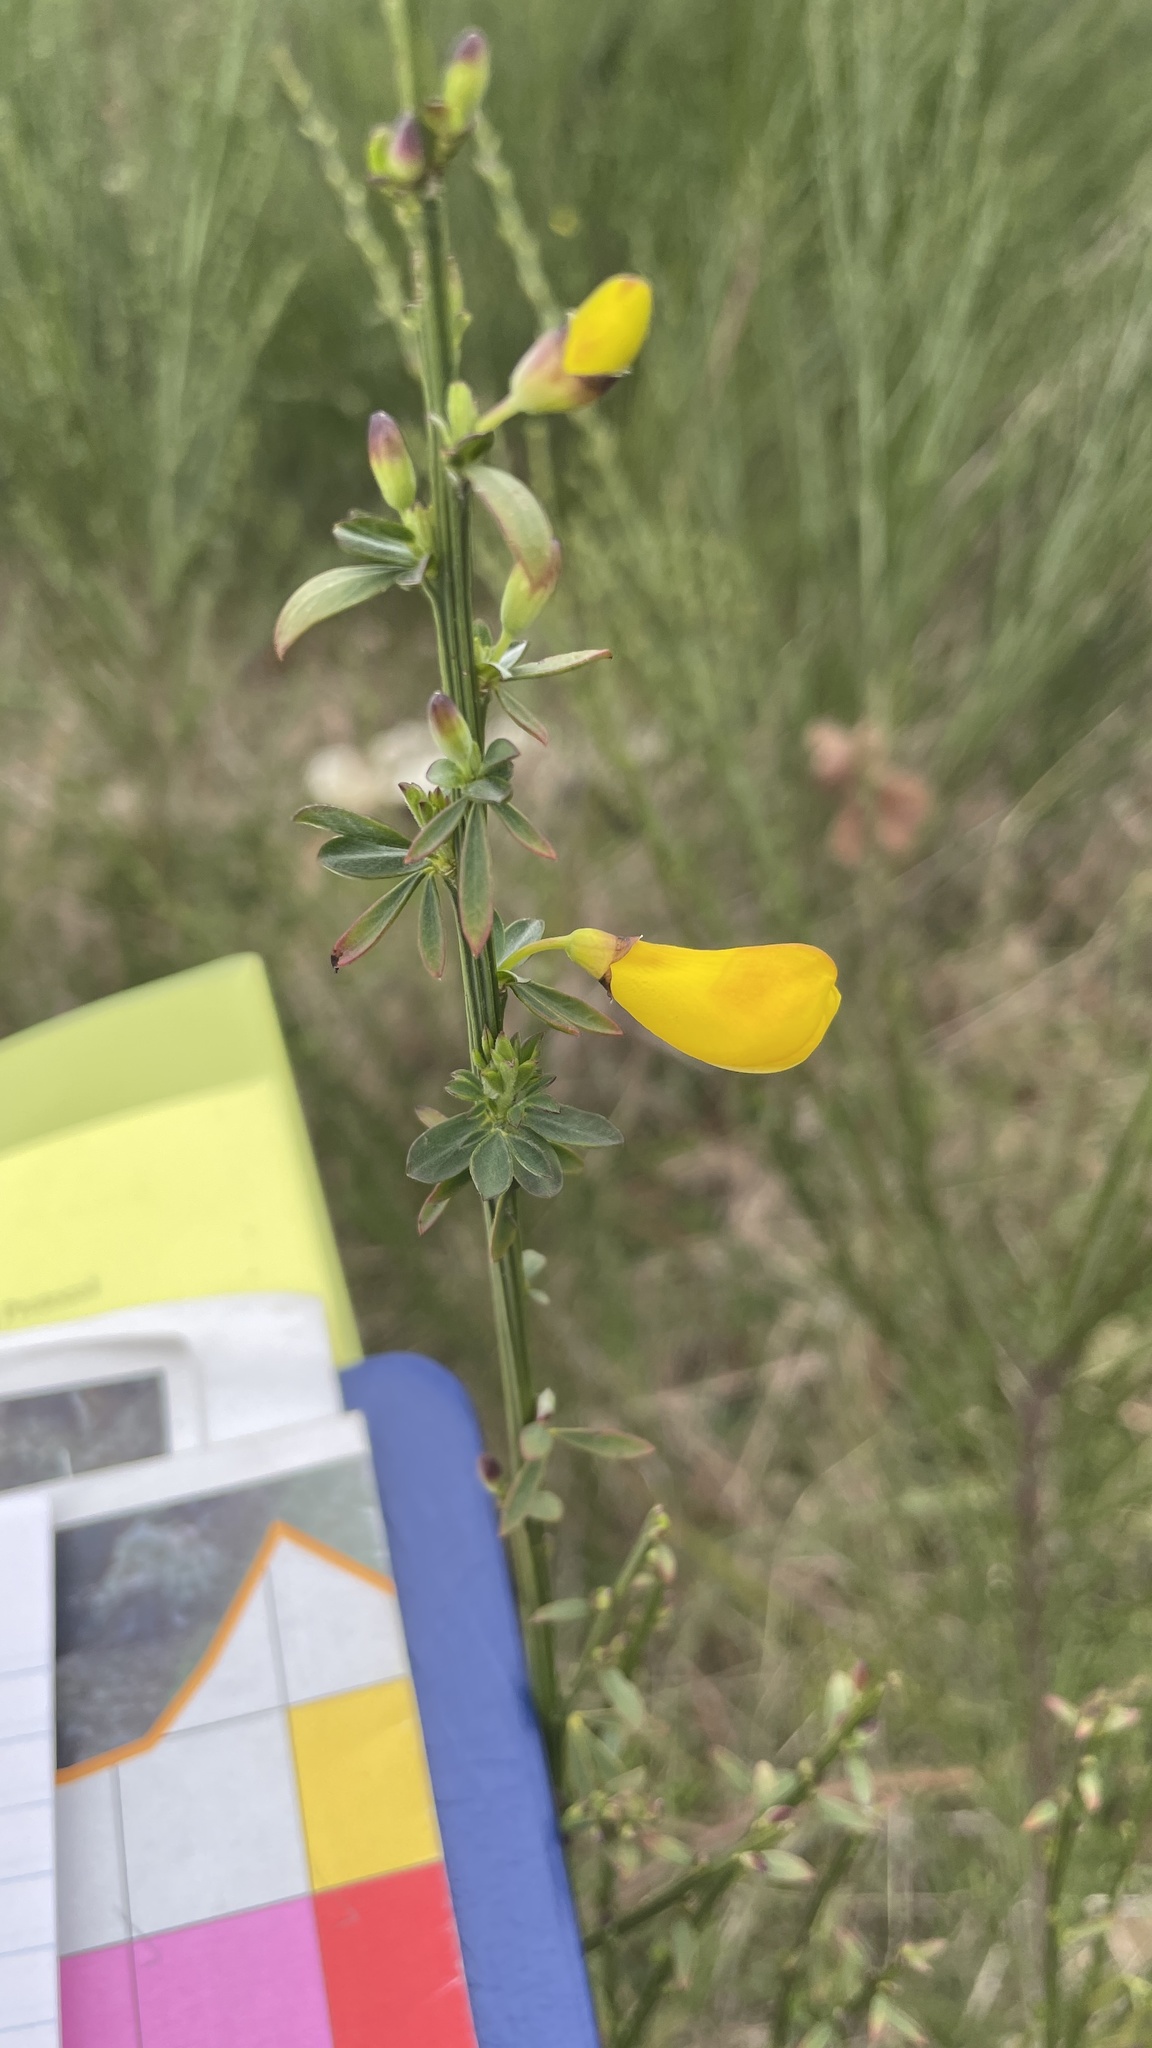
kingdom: Plantae
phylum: Tracheophyta
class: Magnoliopsida
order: Fabales
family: Fabaceae
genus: Cytisus
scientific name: Cytisus scoparius
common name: Scotch broom
